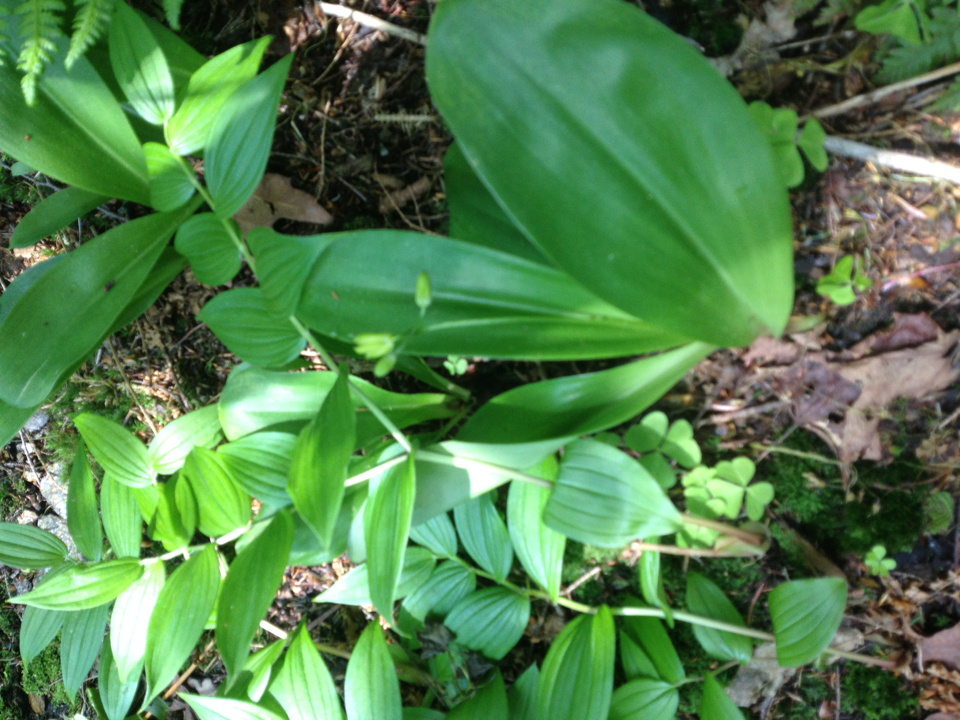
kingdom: Plantae
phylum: Tracheophyta
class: Liliopsida
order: Liliales
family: Liliaceae
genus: Clintonia
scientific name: Clintonia borealis
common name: Yellow clintonia
